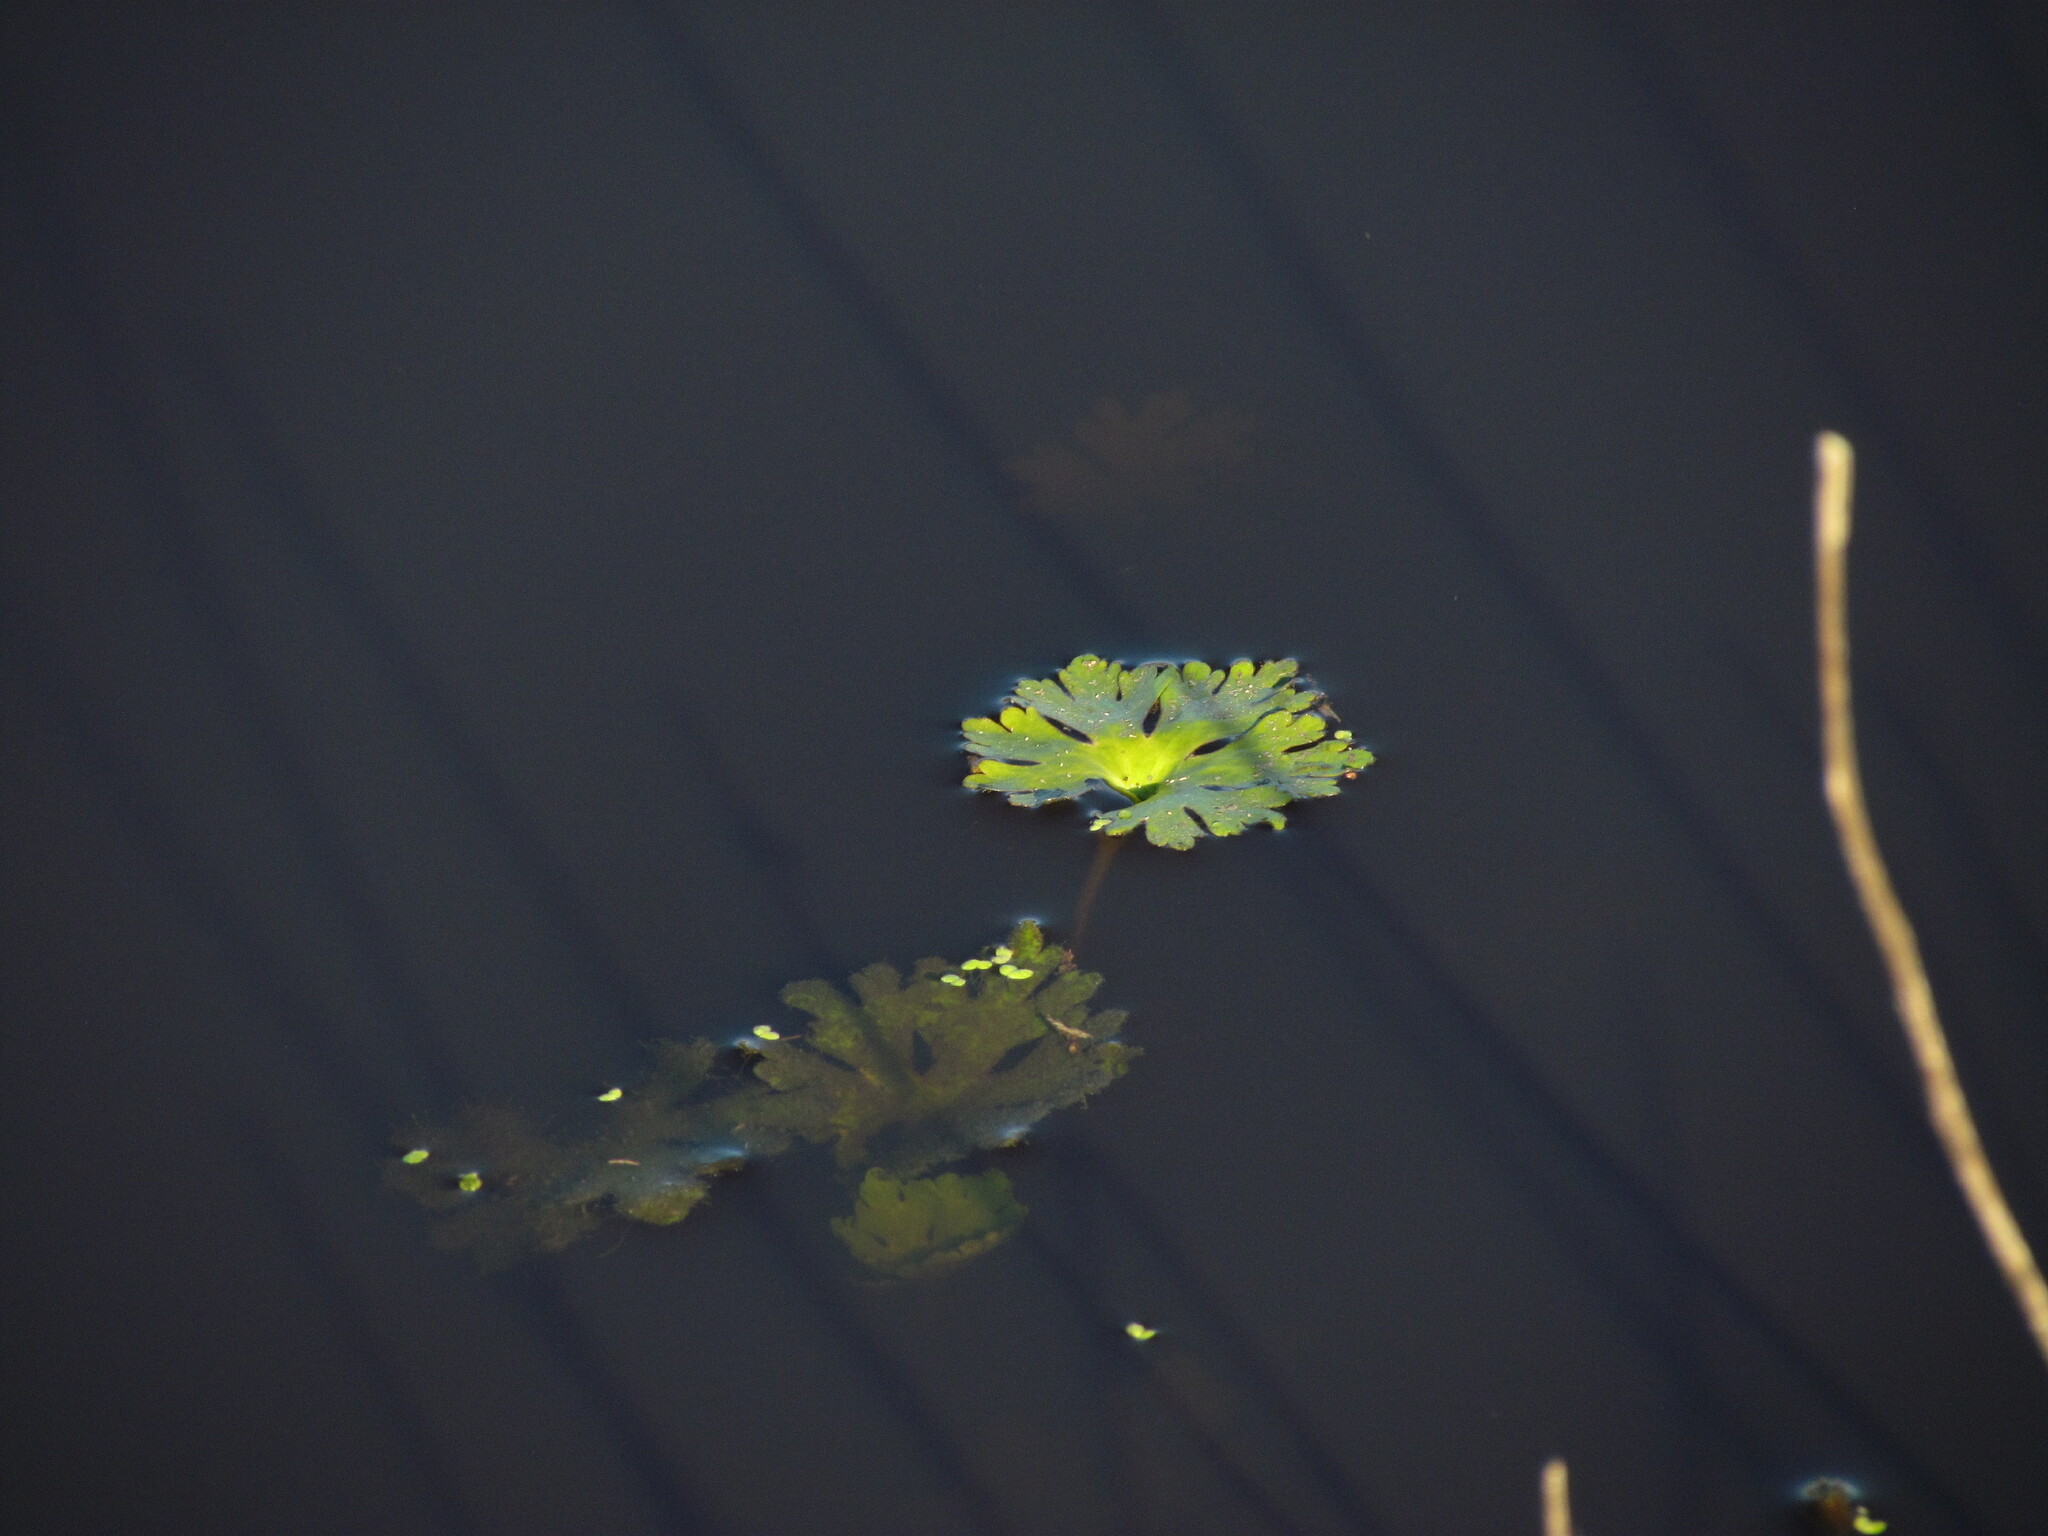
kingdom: Plantae
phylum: Tracheophyta
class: Magnoliopsida
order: Ranunculales
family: Ranunculaceae
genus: Ranunculus
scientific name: Ranunculus apiifolius
